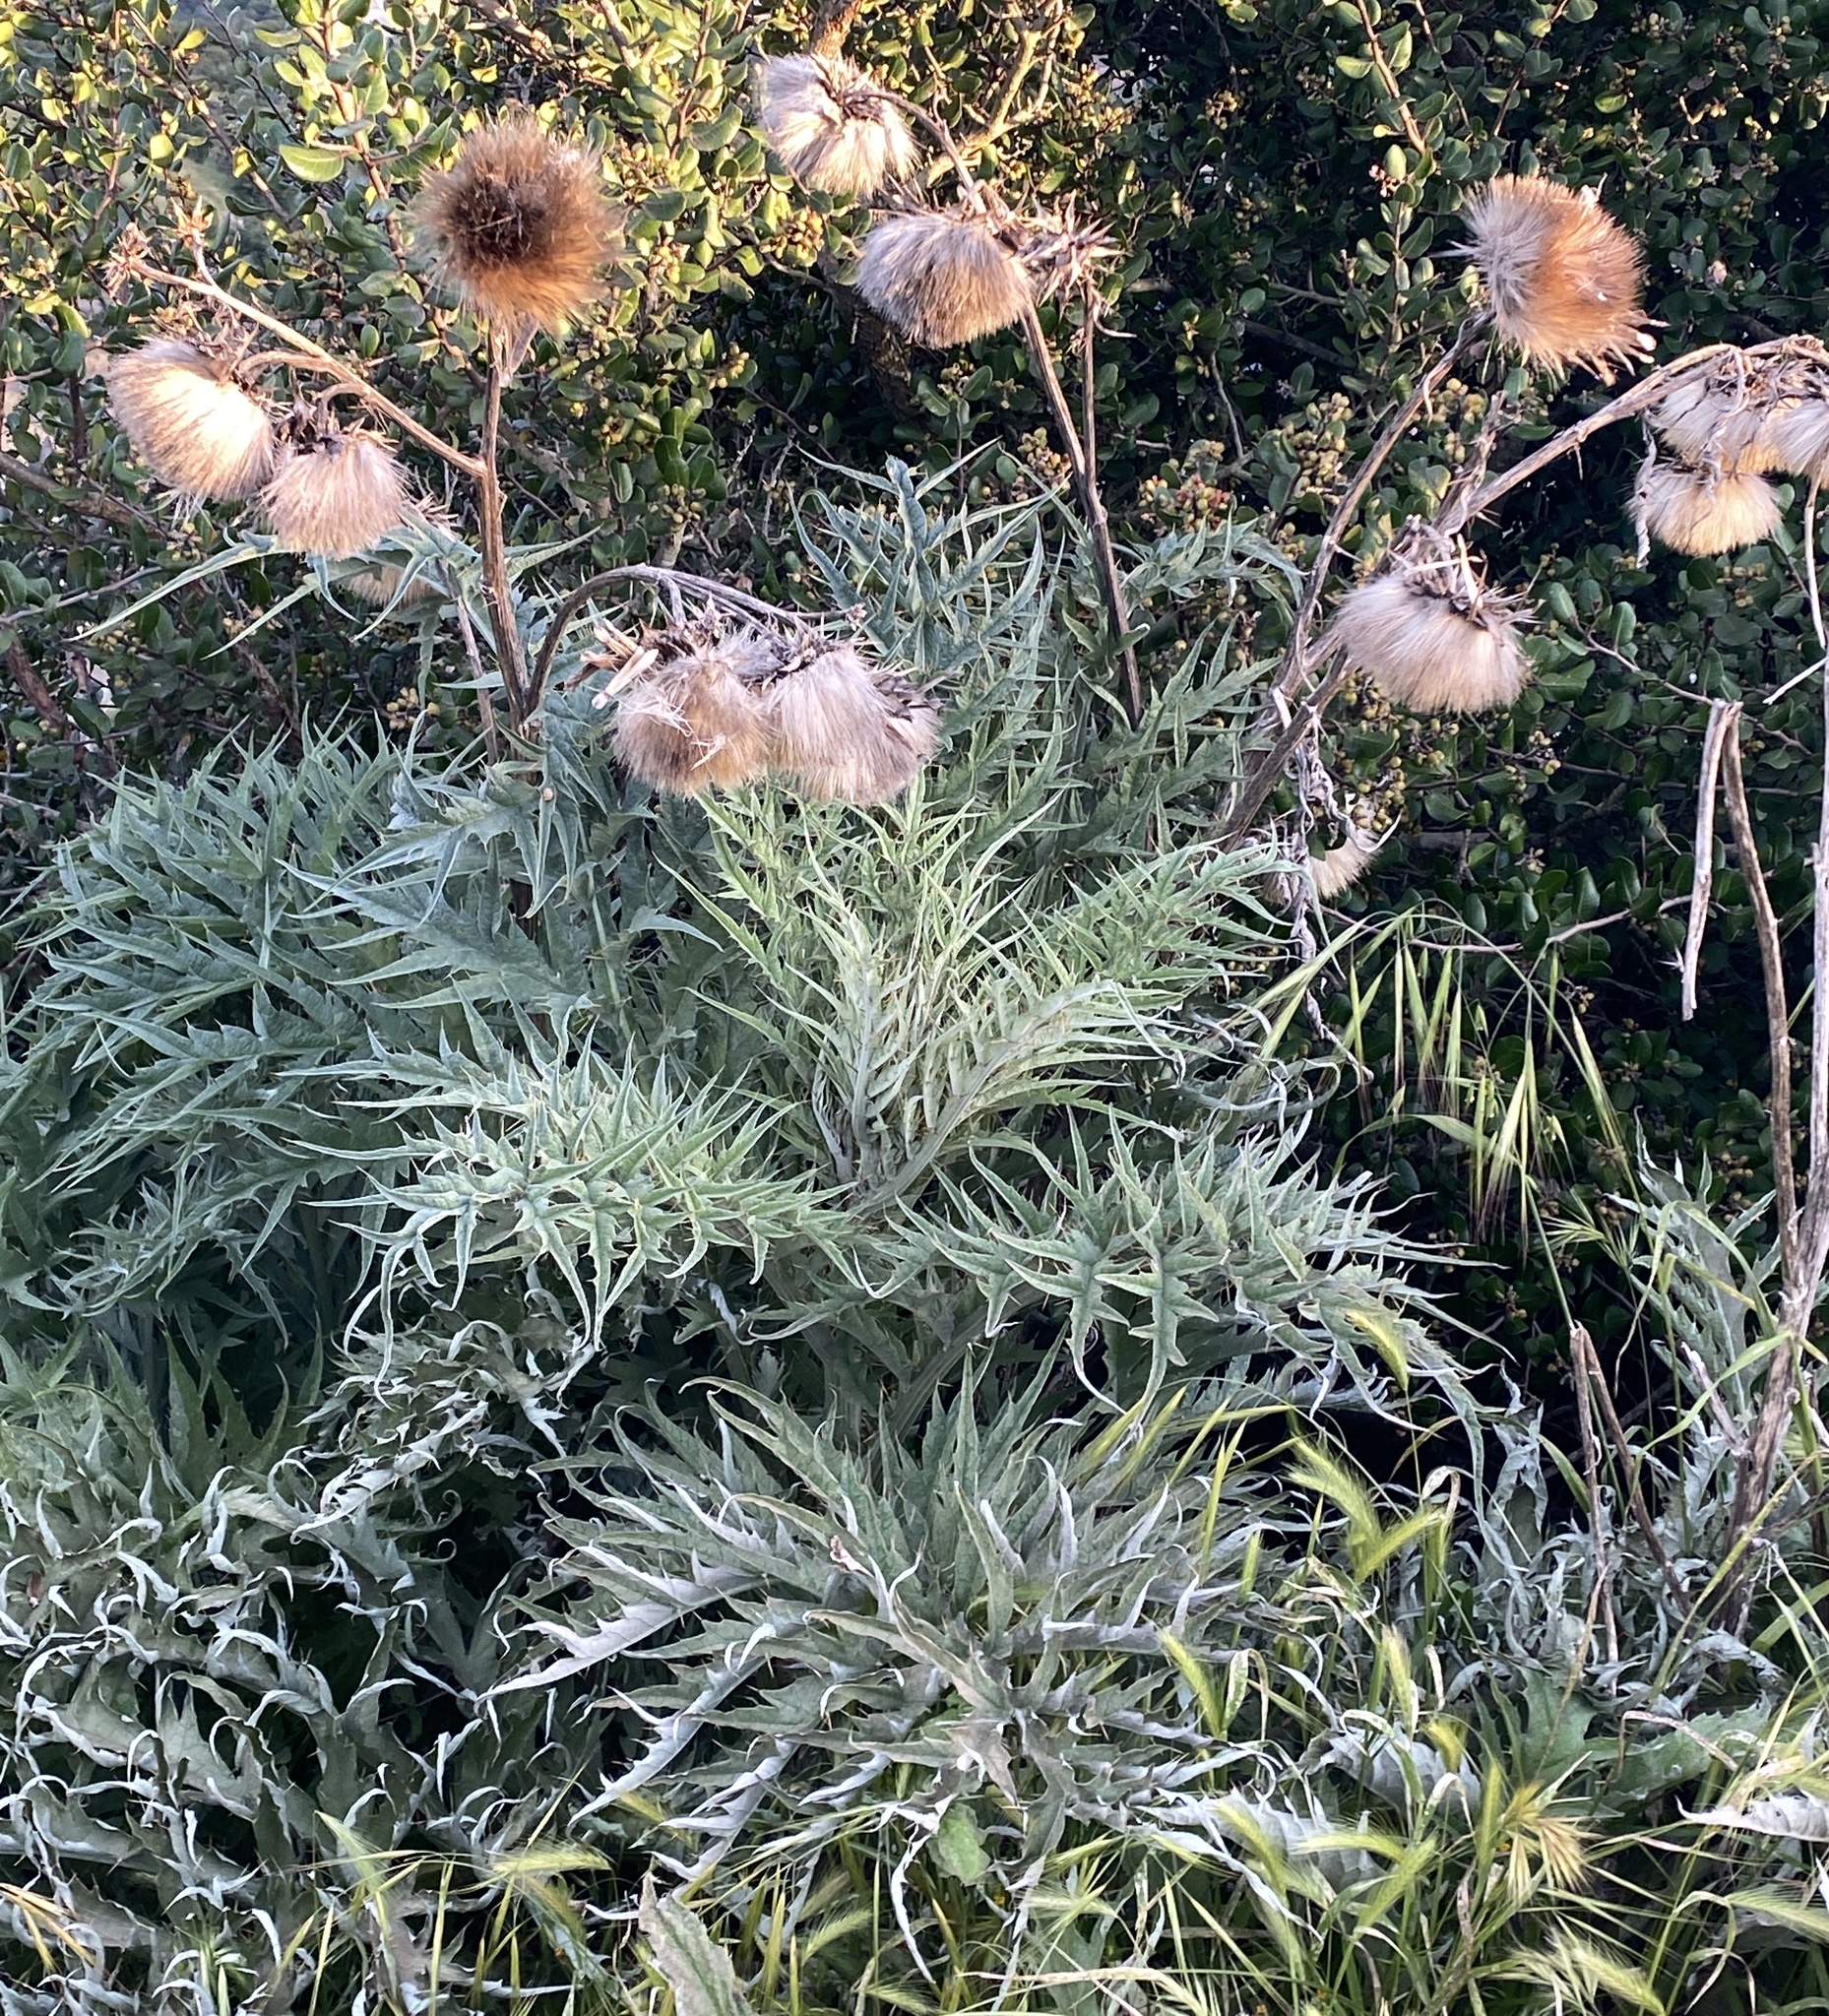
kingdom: Plantae
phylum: Tracheophyta
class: Magnoliopsida
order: Asterales
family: Asteraceae
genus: Cynara
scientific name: Cynara cardunculus
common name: Globe artichoke
